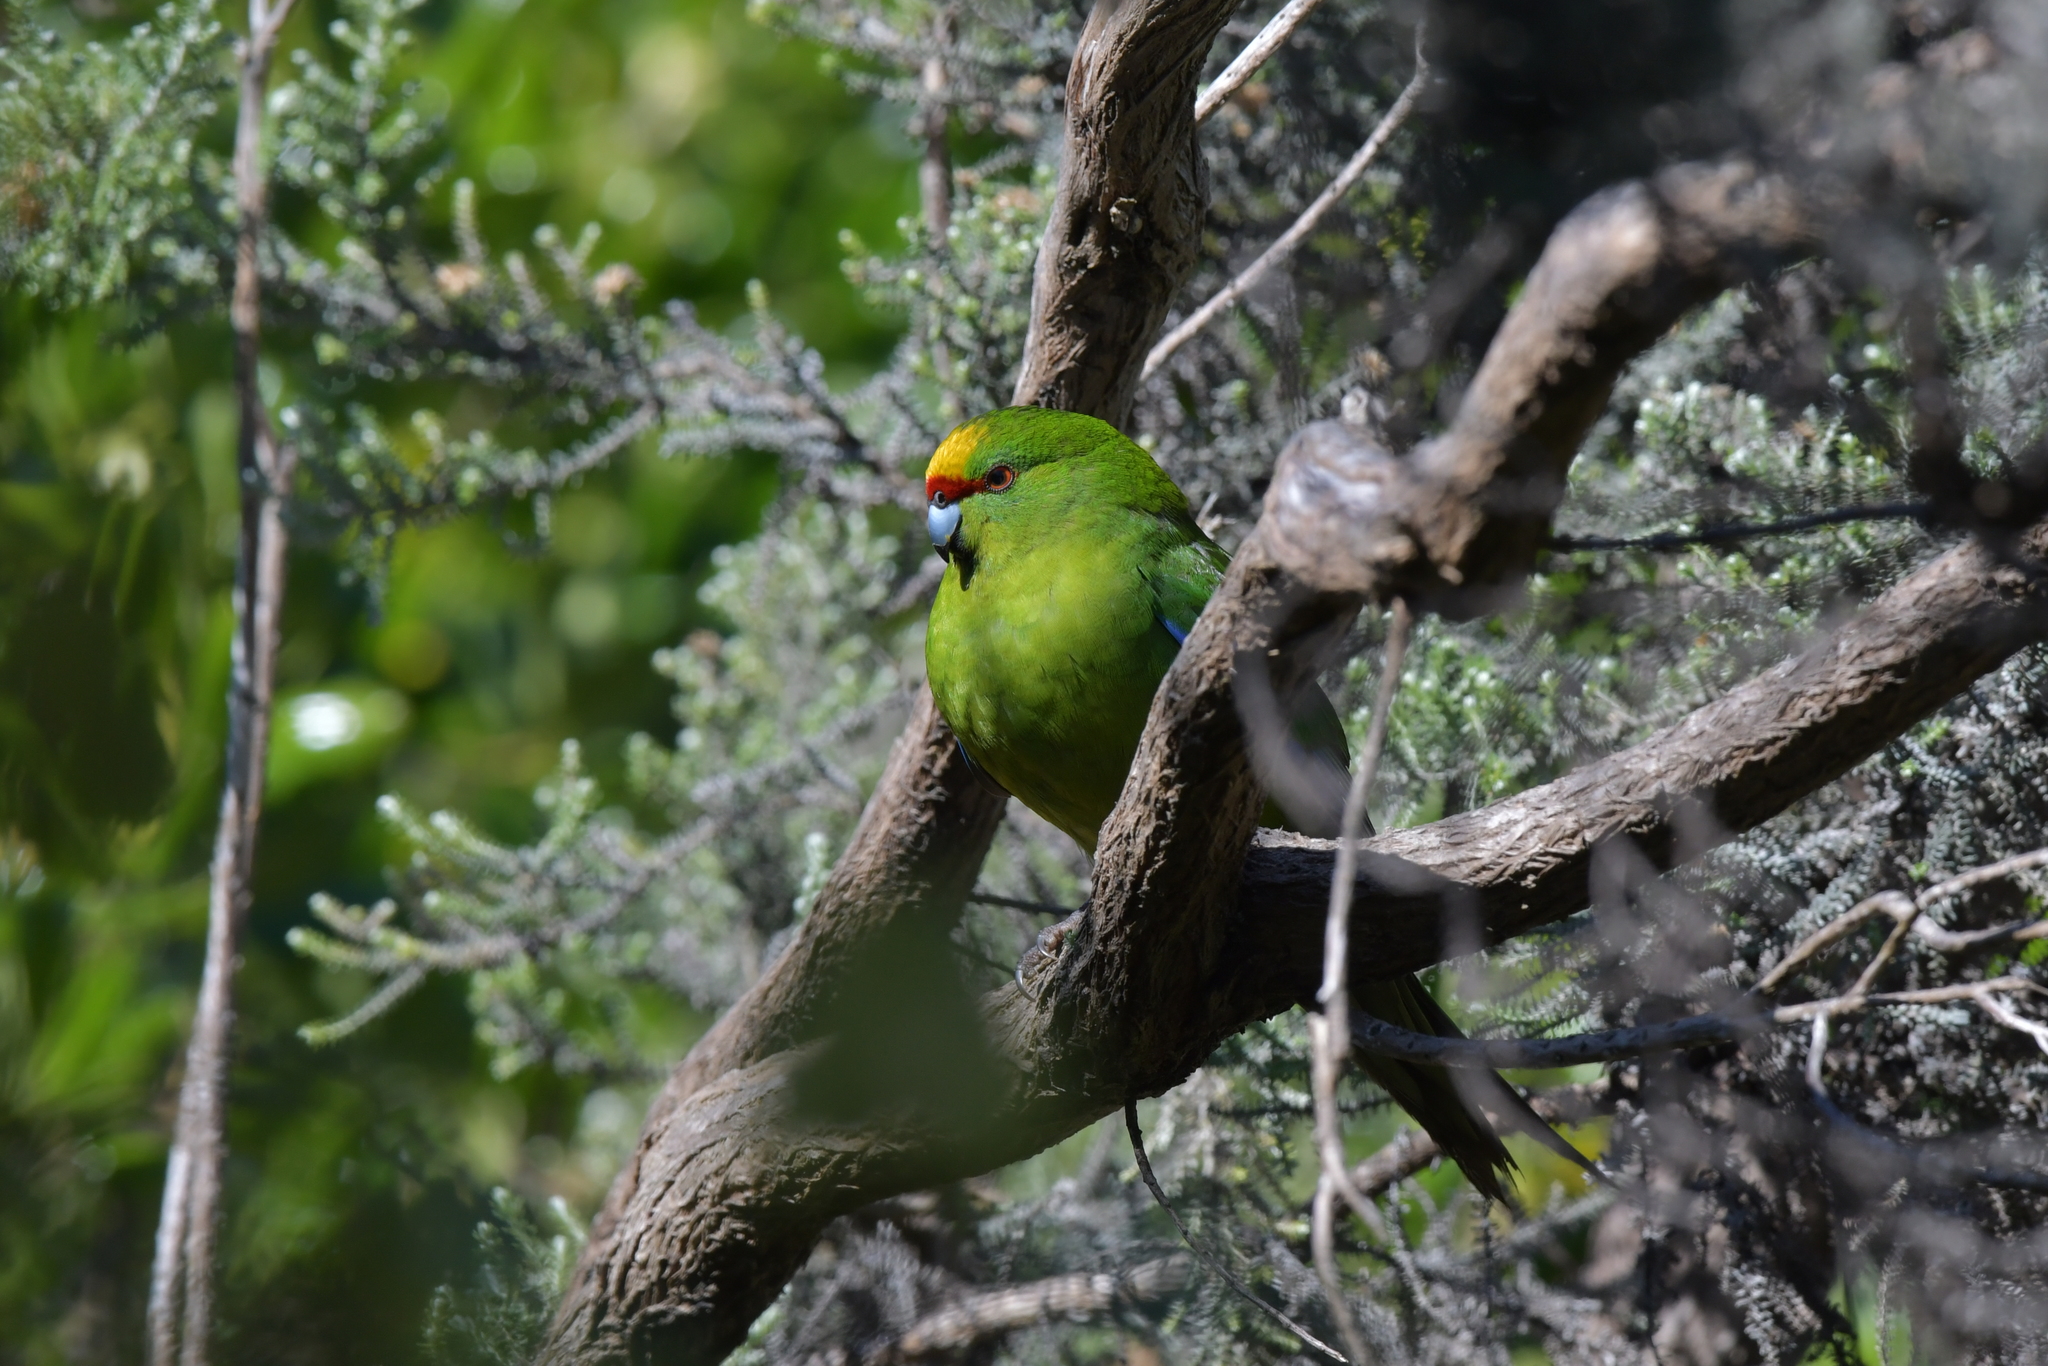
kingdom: Animalia
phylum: Chordata
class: Aves
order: Psittaciformes
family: Psittacidae
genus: Cyanoramphus
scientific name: Cyanoramphus auriceps
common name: Yellow-crowned parakeet
